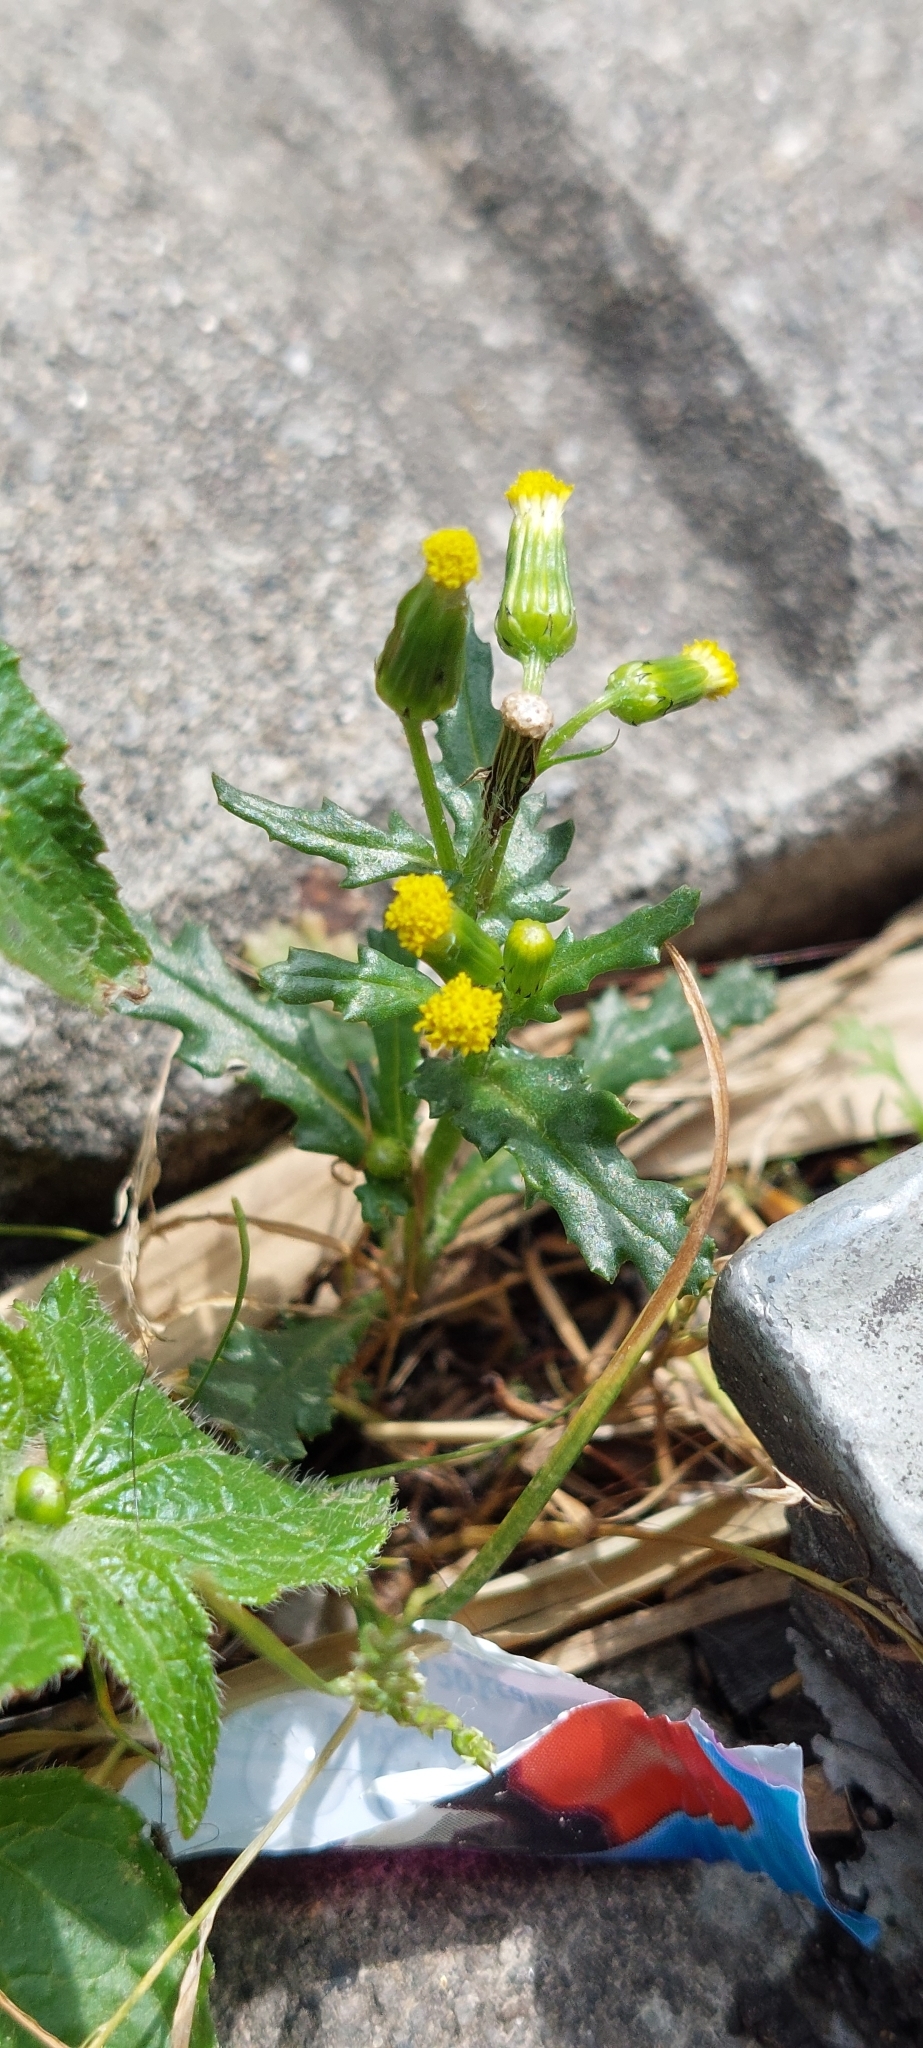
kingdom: Plantae
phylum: Tracheophyta
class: Magnoliopsida
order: Asterales
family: Asteraceae
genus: Senecio
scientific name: Senecio vulgaris
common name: Old-man-in-the-spring
